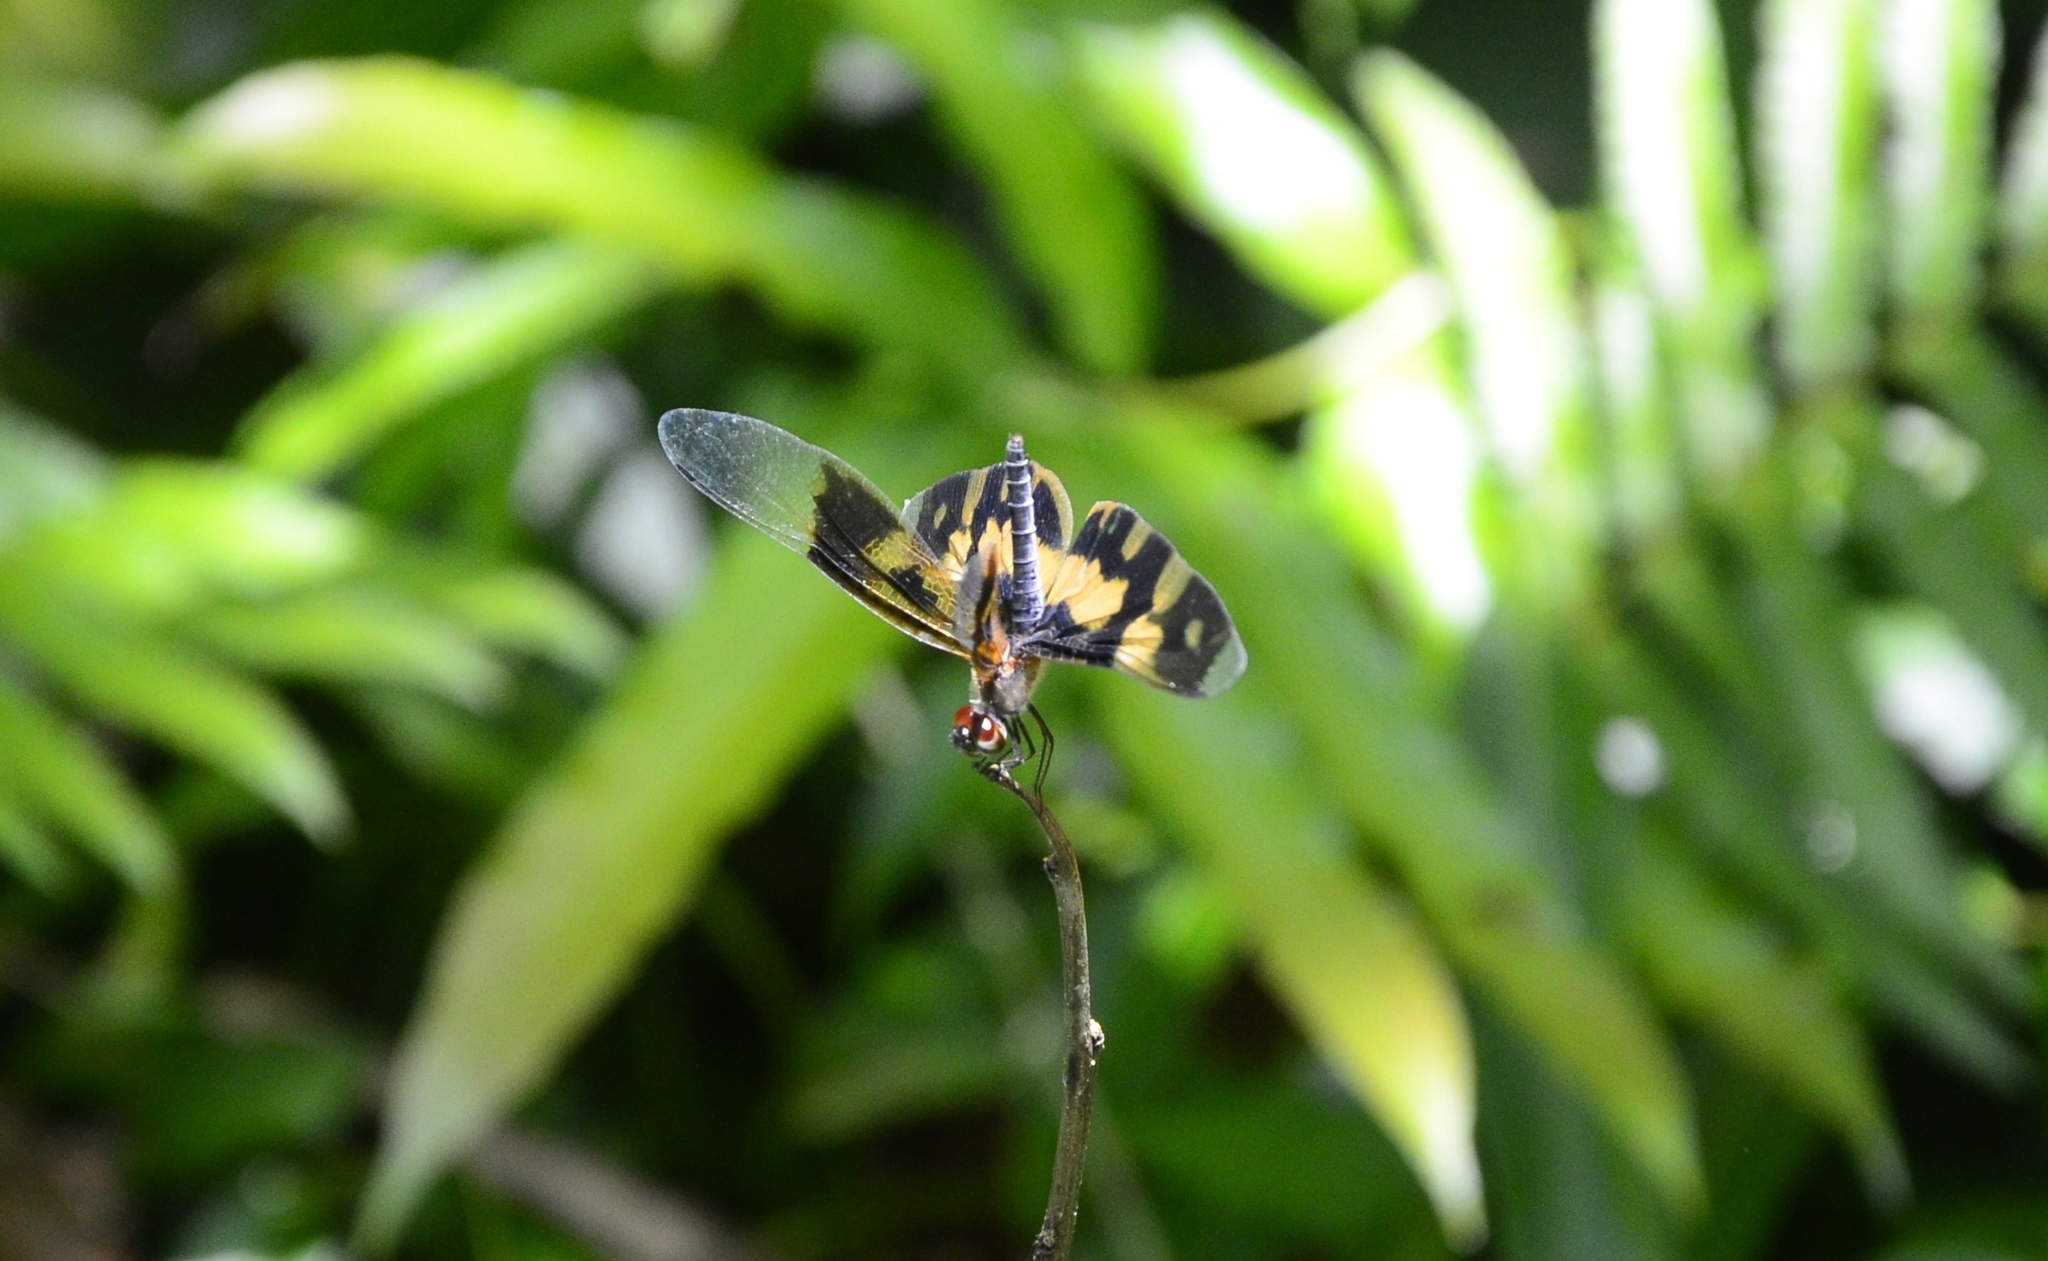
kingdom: Animalia
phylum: Arthropoda
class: Insecta
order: Odonata
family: Libellulidae
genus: Rhyothemis
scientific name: Rhyothemis variegata
